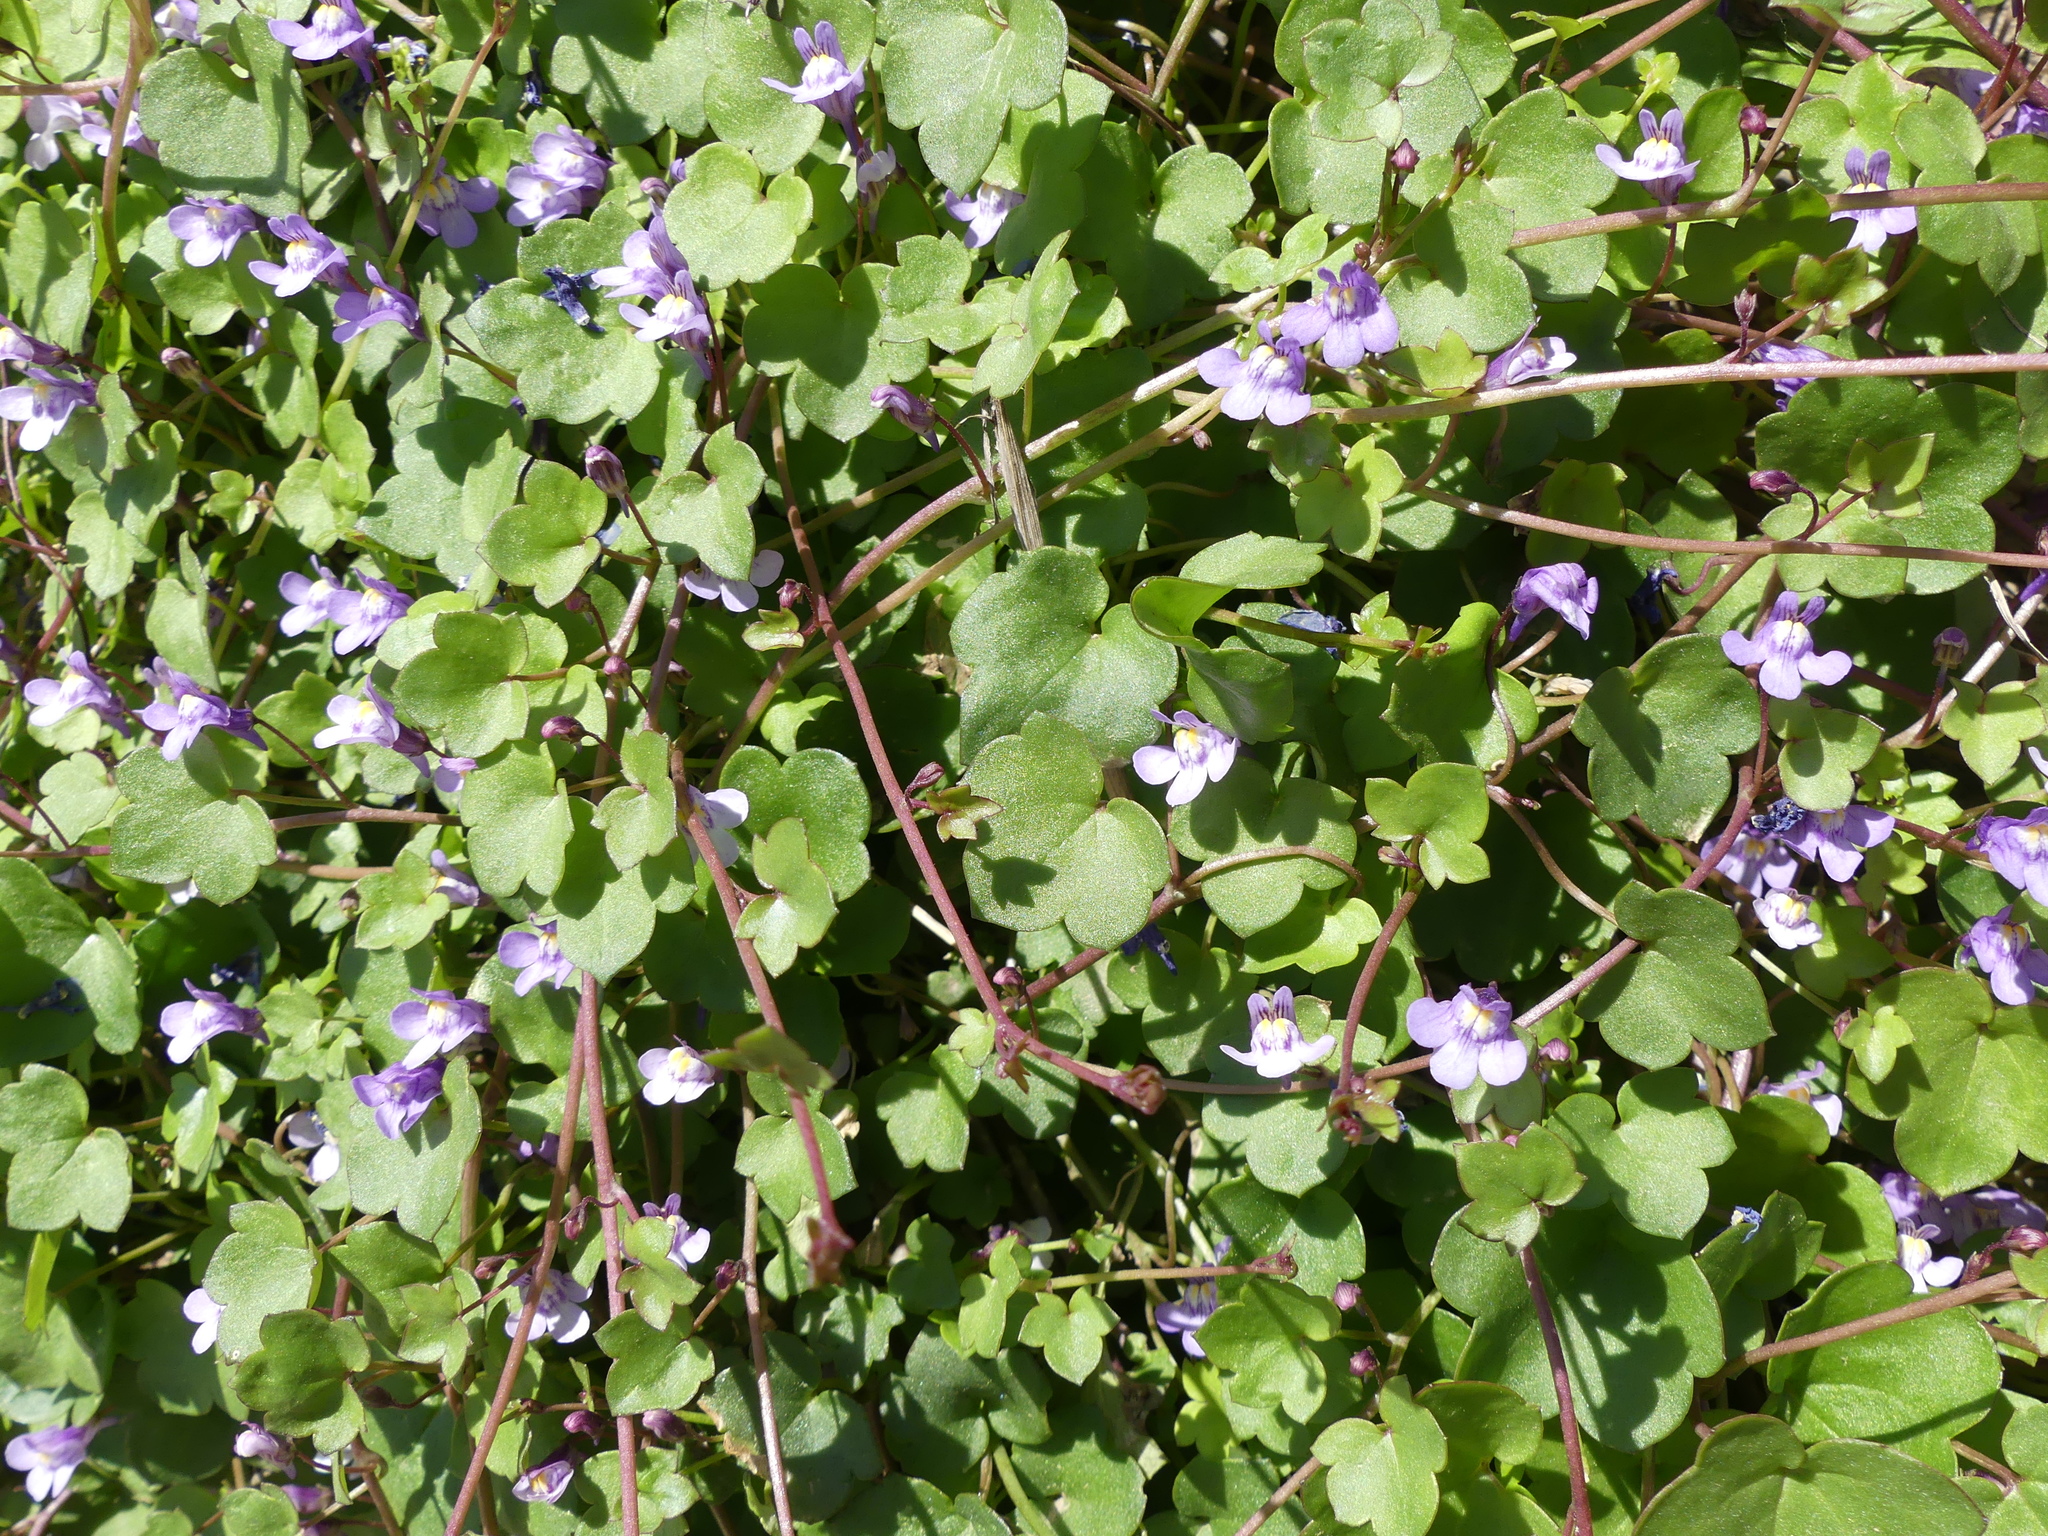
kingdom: Plantae
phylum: Tracheophyta
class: Magnoliopsida
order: Lamiales
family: Plantaginaceae
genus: Cymbalaria
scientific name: Cymbalaria muralis
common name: Ivy-leaved toadflax
